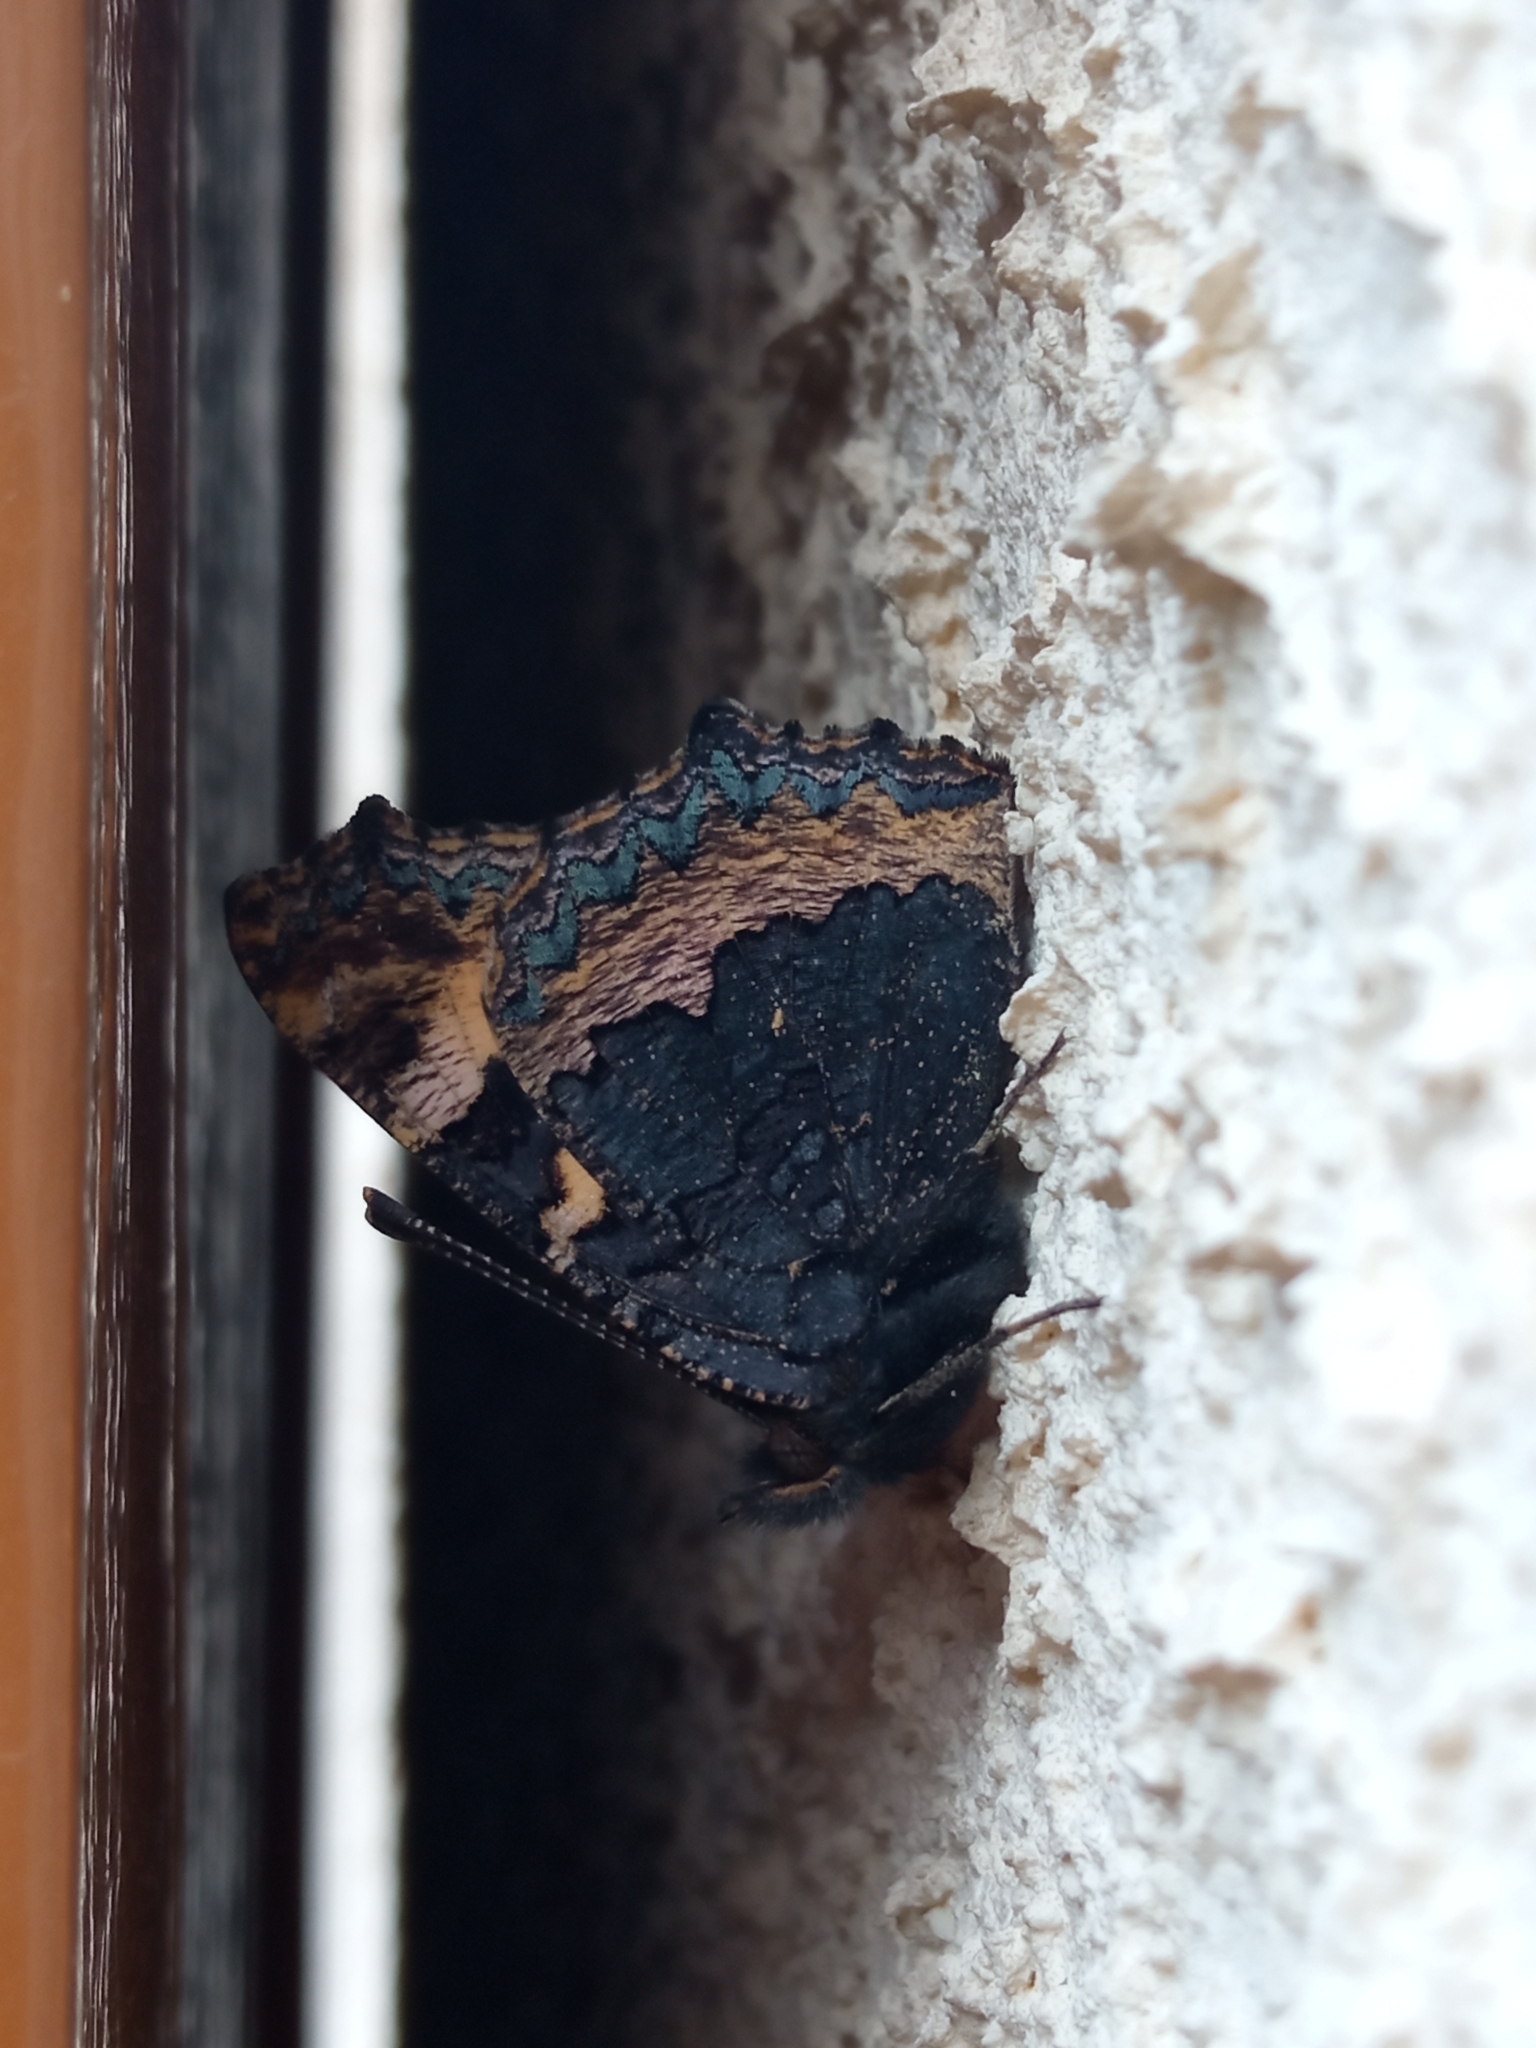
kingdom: Animalia
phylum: Arthropoda
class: Insecta
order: Lepidoptera
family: Nymphalidae
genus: Aglais
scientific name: Aglais urticae
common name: Small tortoiseshell
